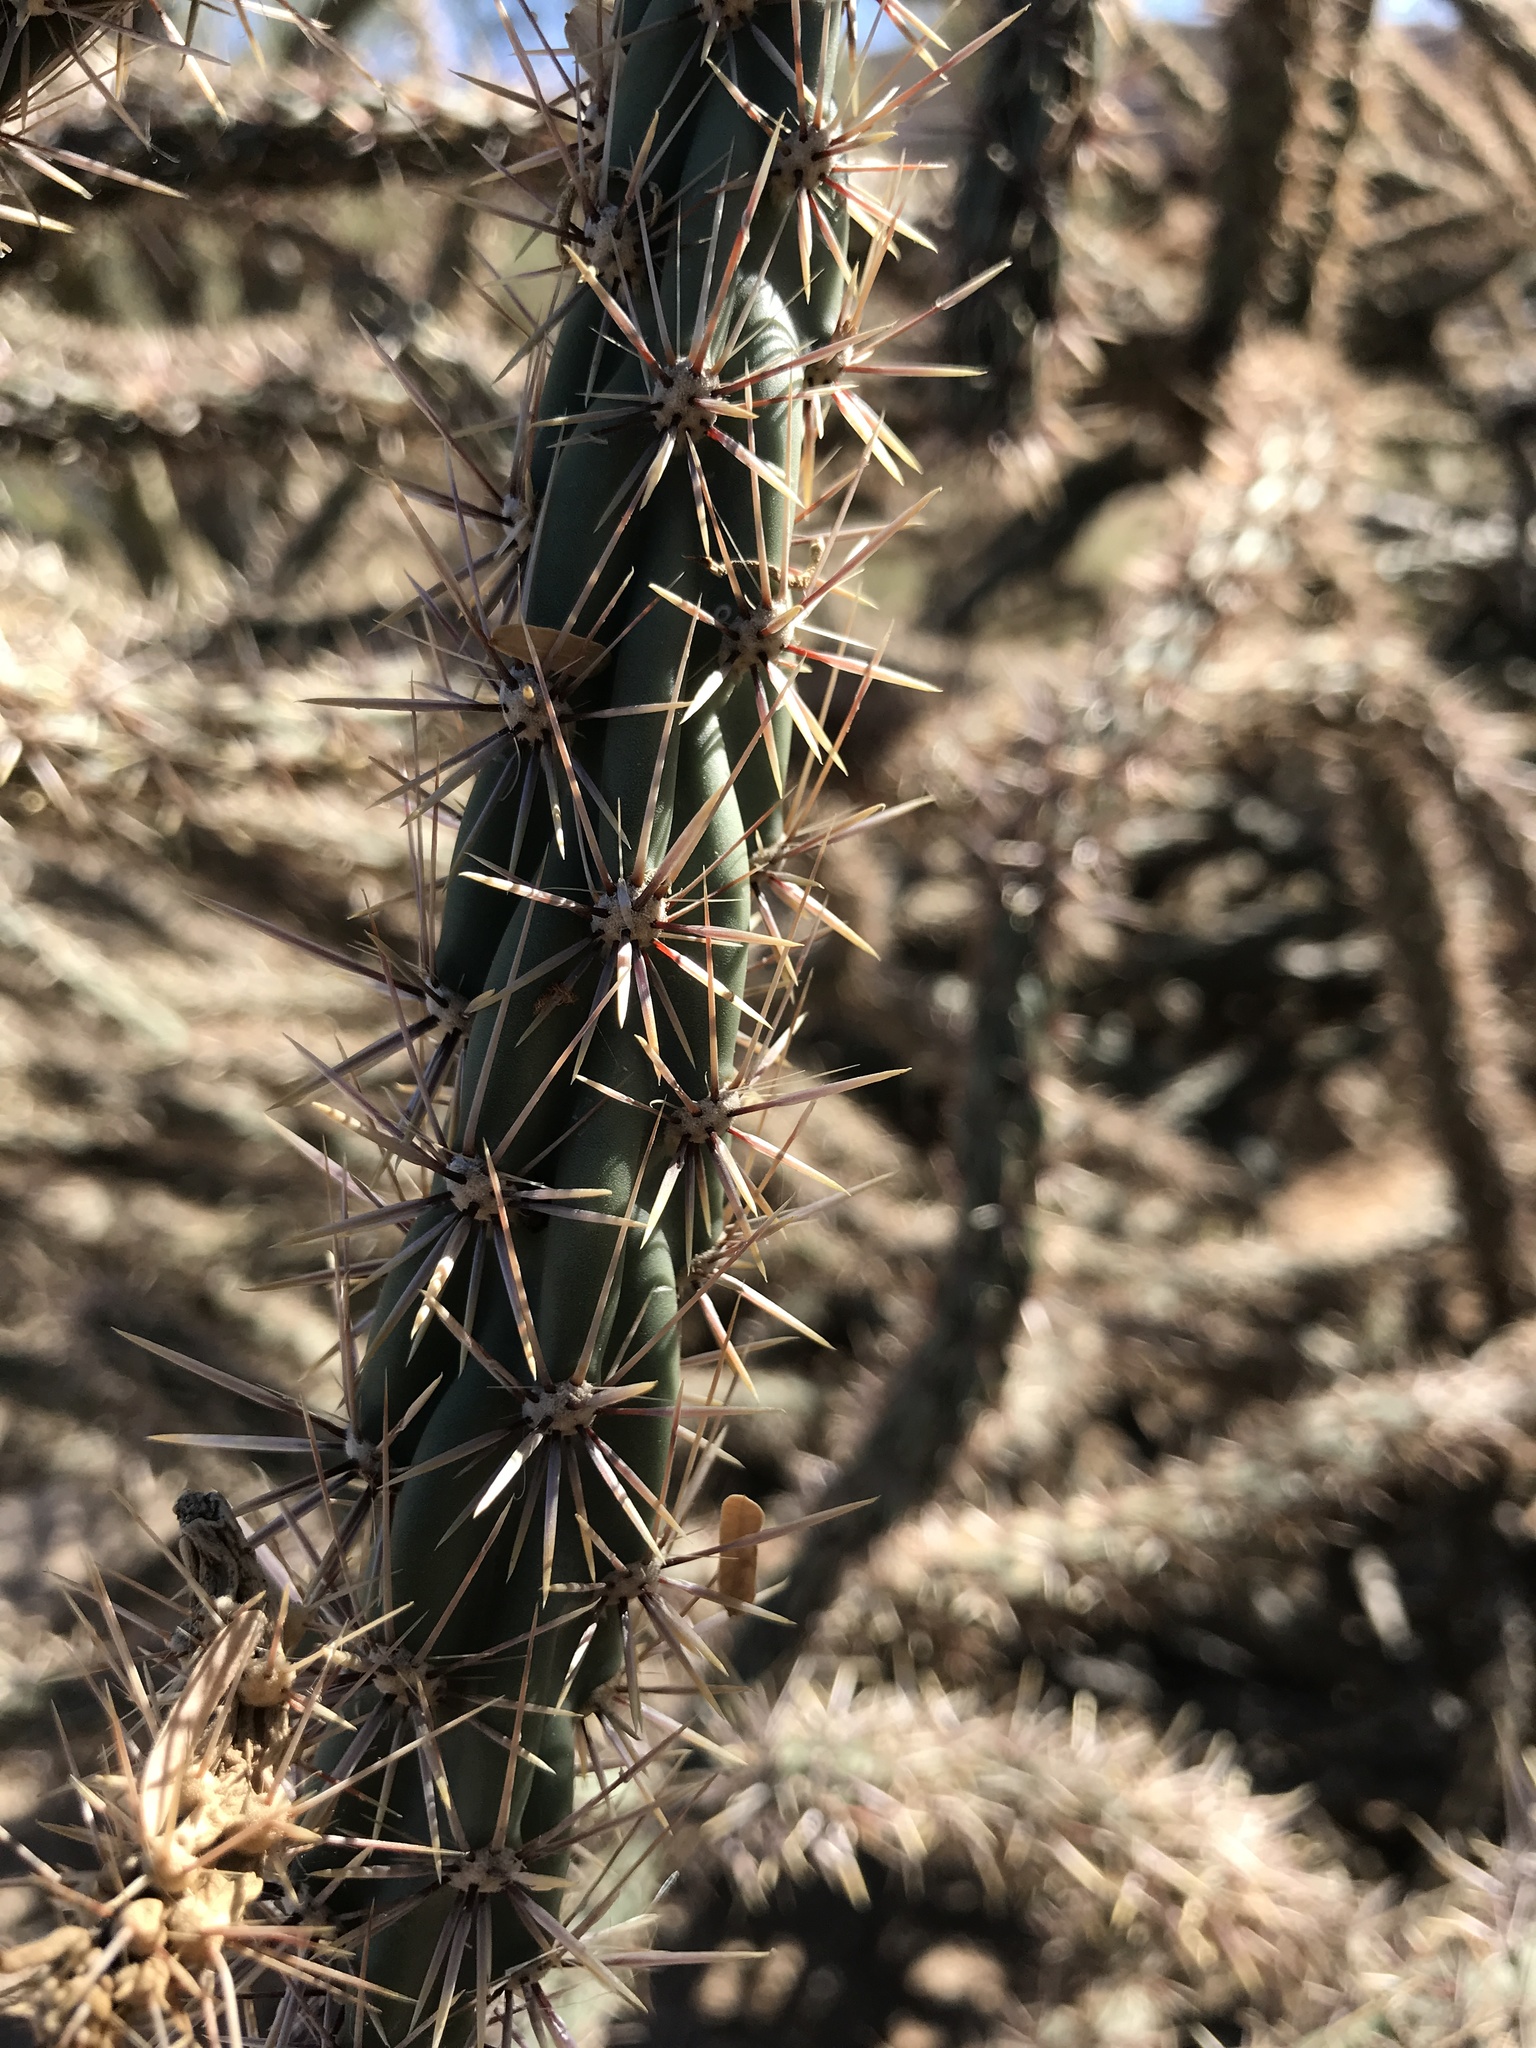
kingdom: Plantae
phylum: Tracheophyta
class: Magnoliopsida
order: Caryophyllales
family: Cactaceae
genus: Cylindropuntia
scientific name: Cylindropuntia acanthocarpa
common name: Buckhorn cholla
